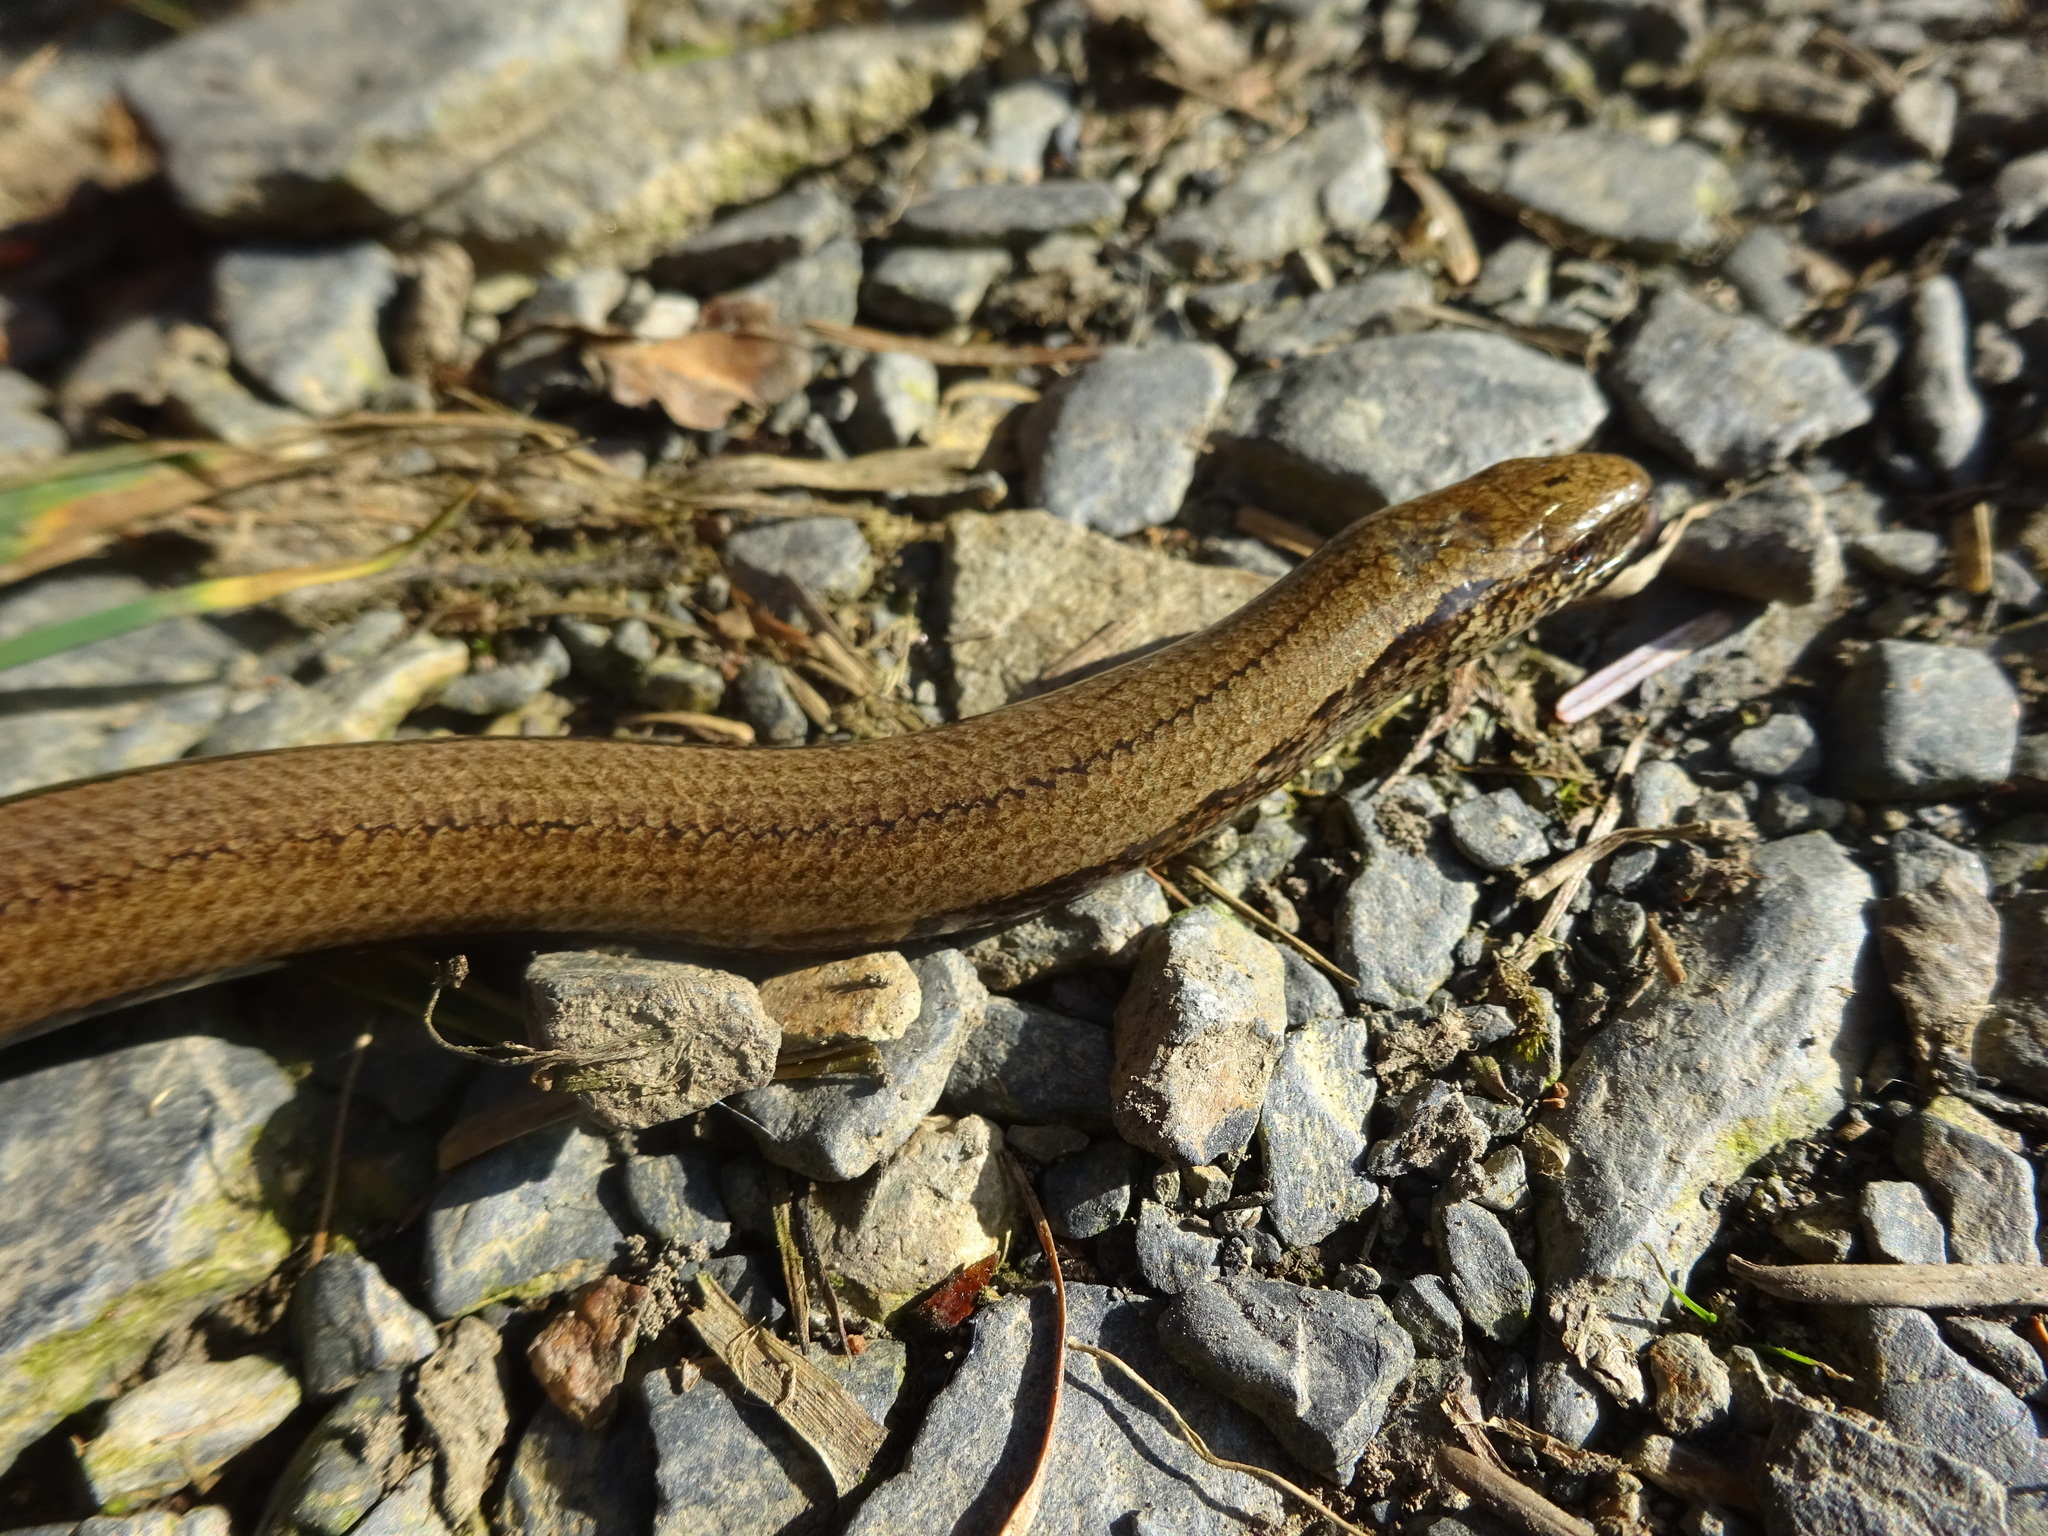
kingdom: Animalia
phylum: Chordata
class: Squamata
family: Anguidae
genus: Anguis
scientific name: Anguis fragilis
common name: Slow worm
